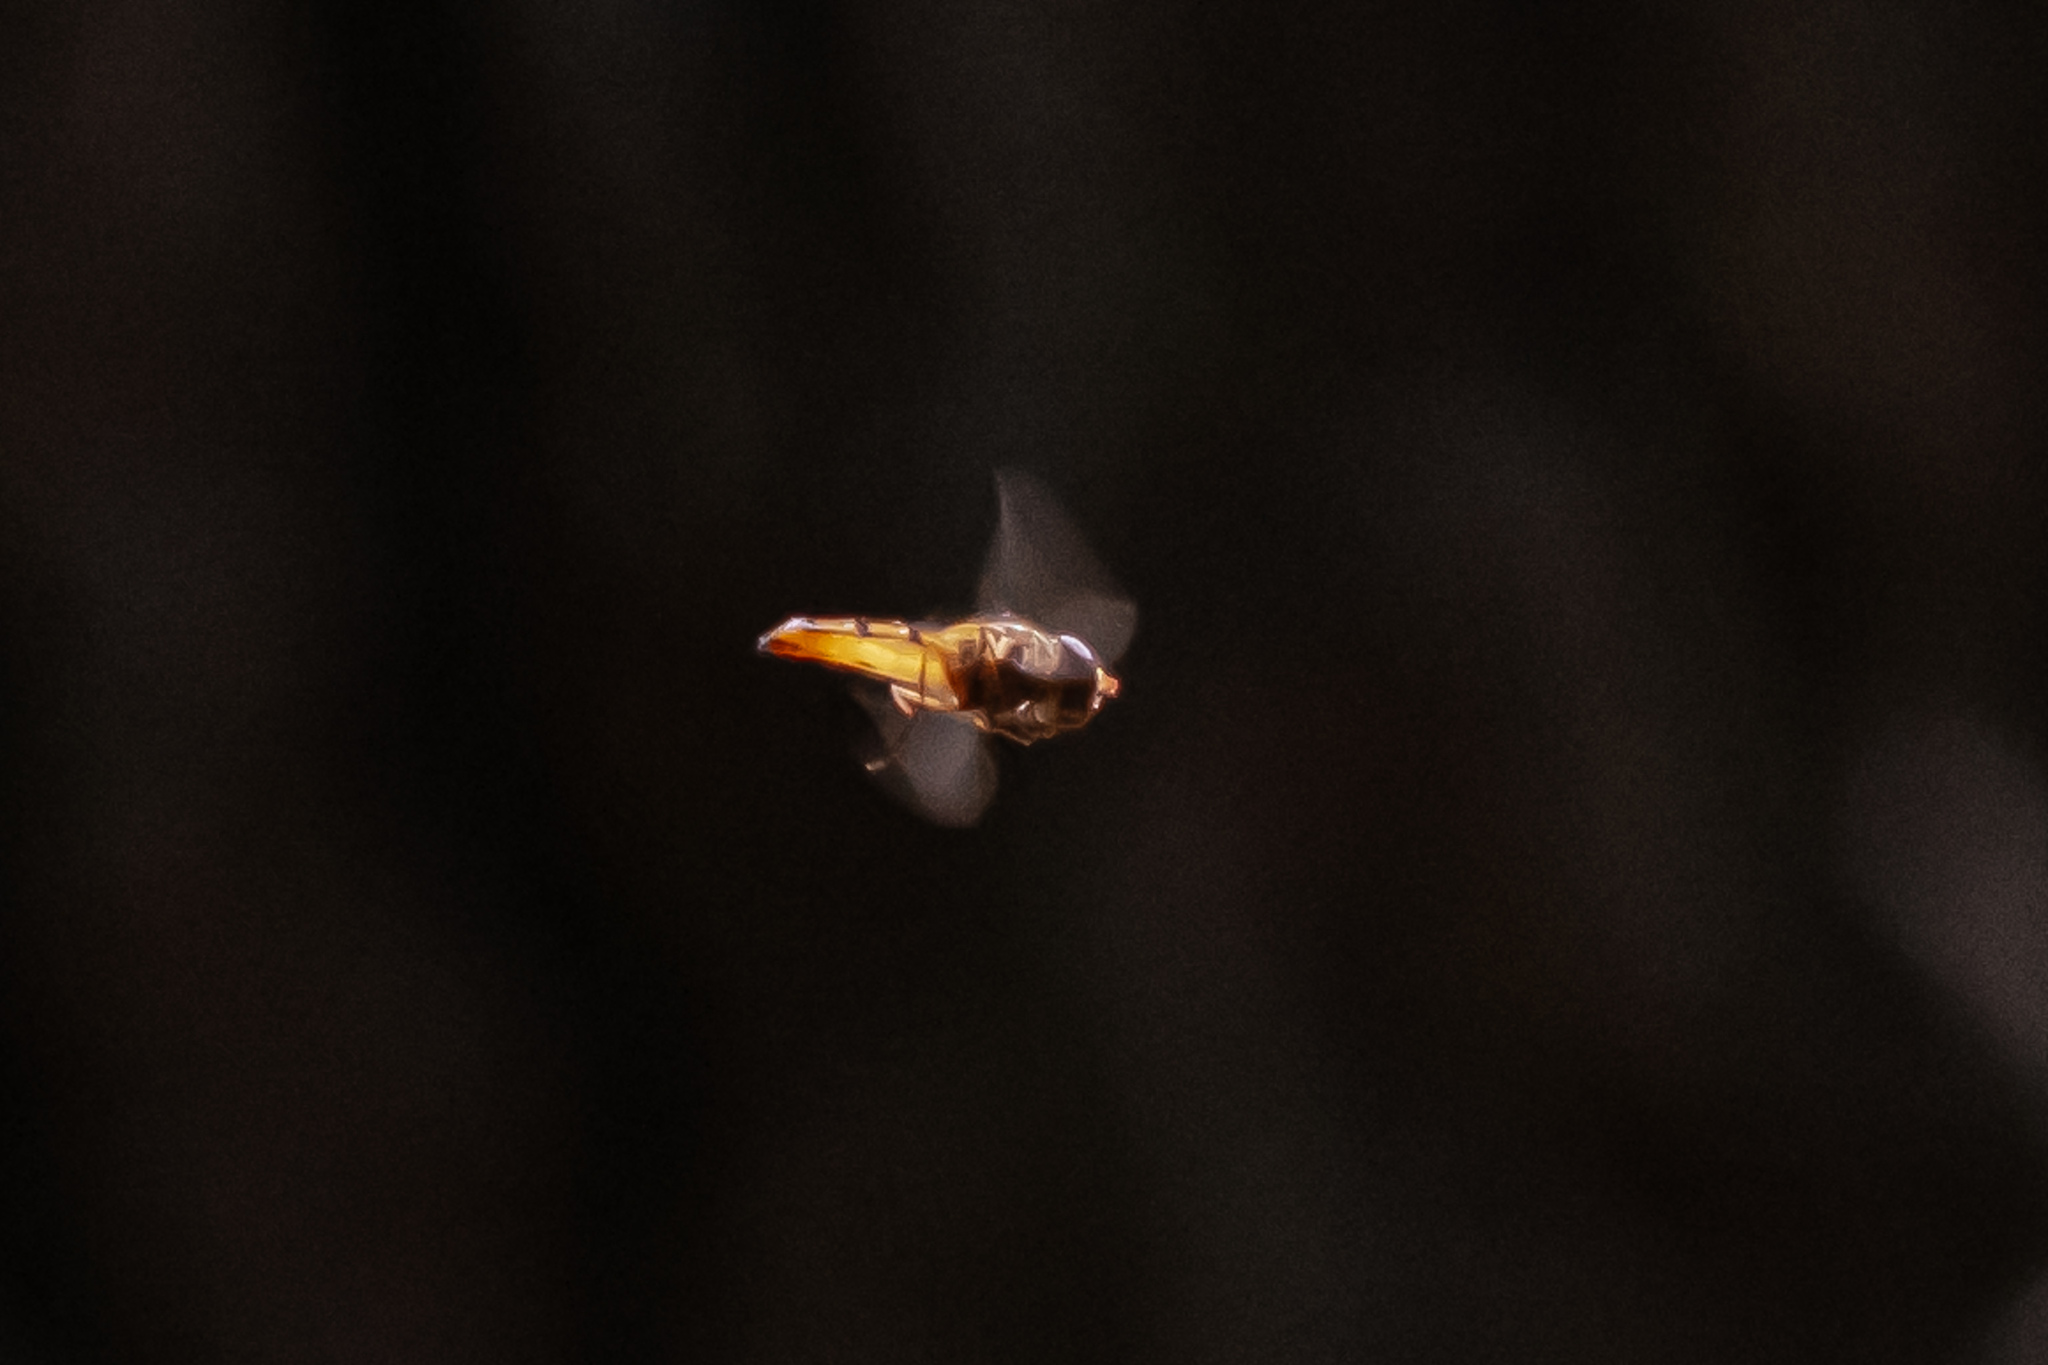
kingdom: Animalia
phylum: Arthropoda
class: Insecta
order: Diptera
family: Syrphidae
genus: Episyrphus
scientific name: Episyrphus balteatus
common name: Marmalade hoverfly
